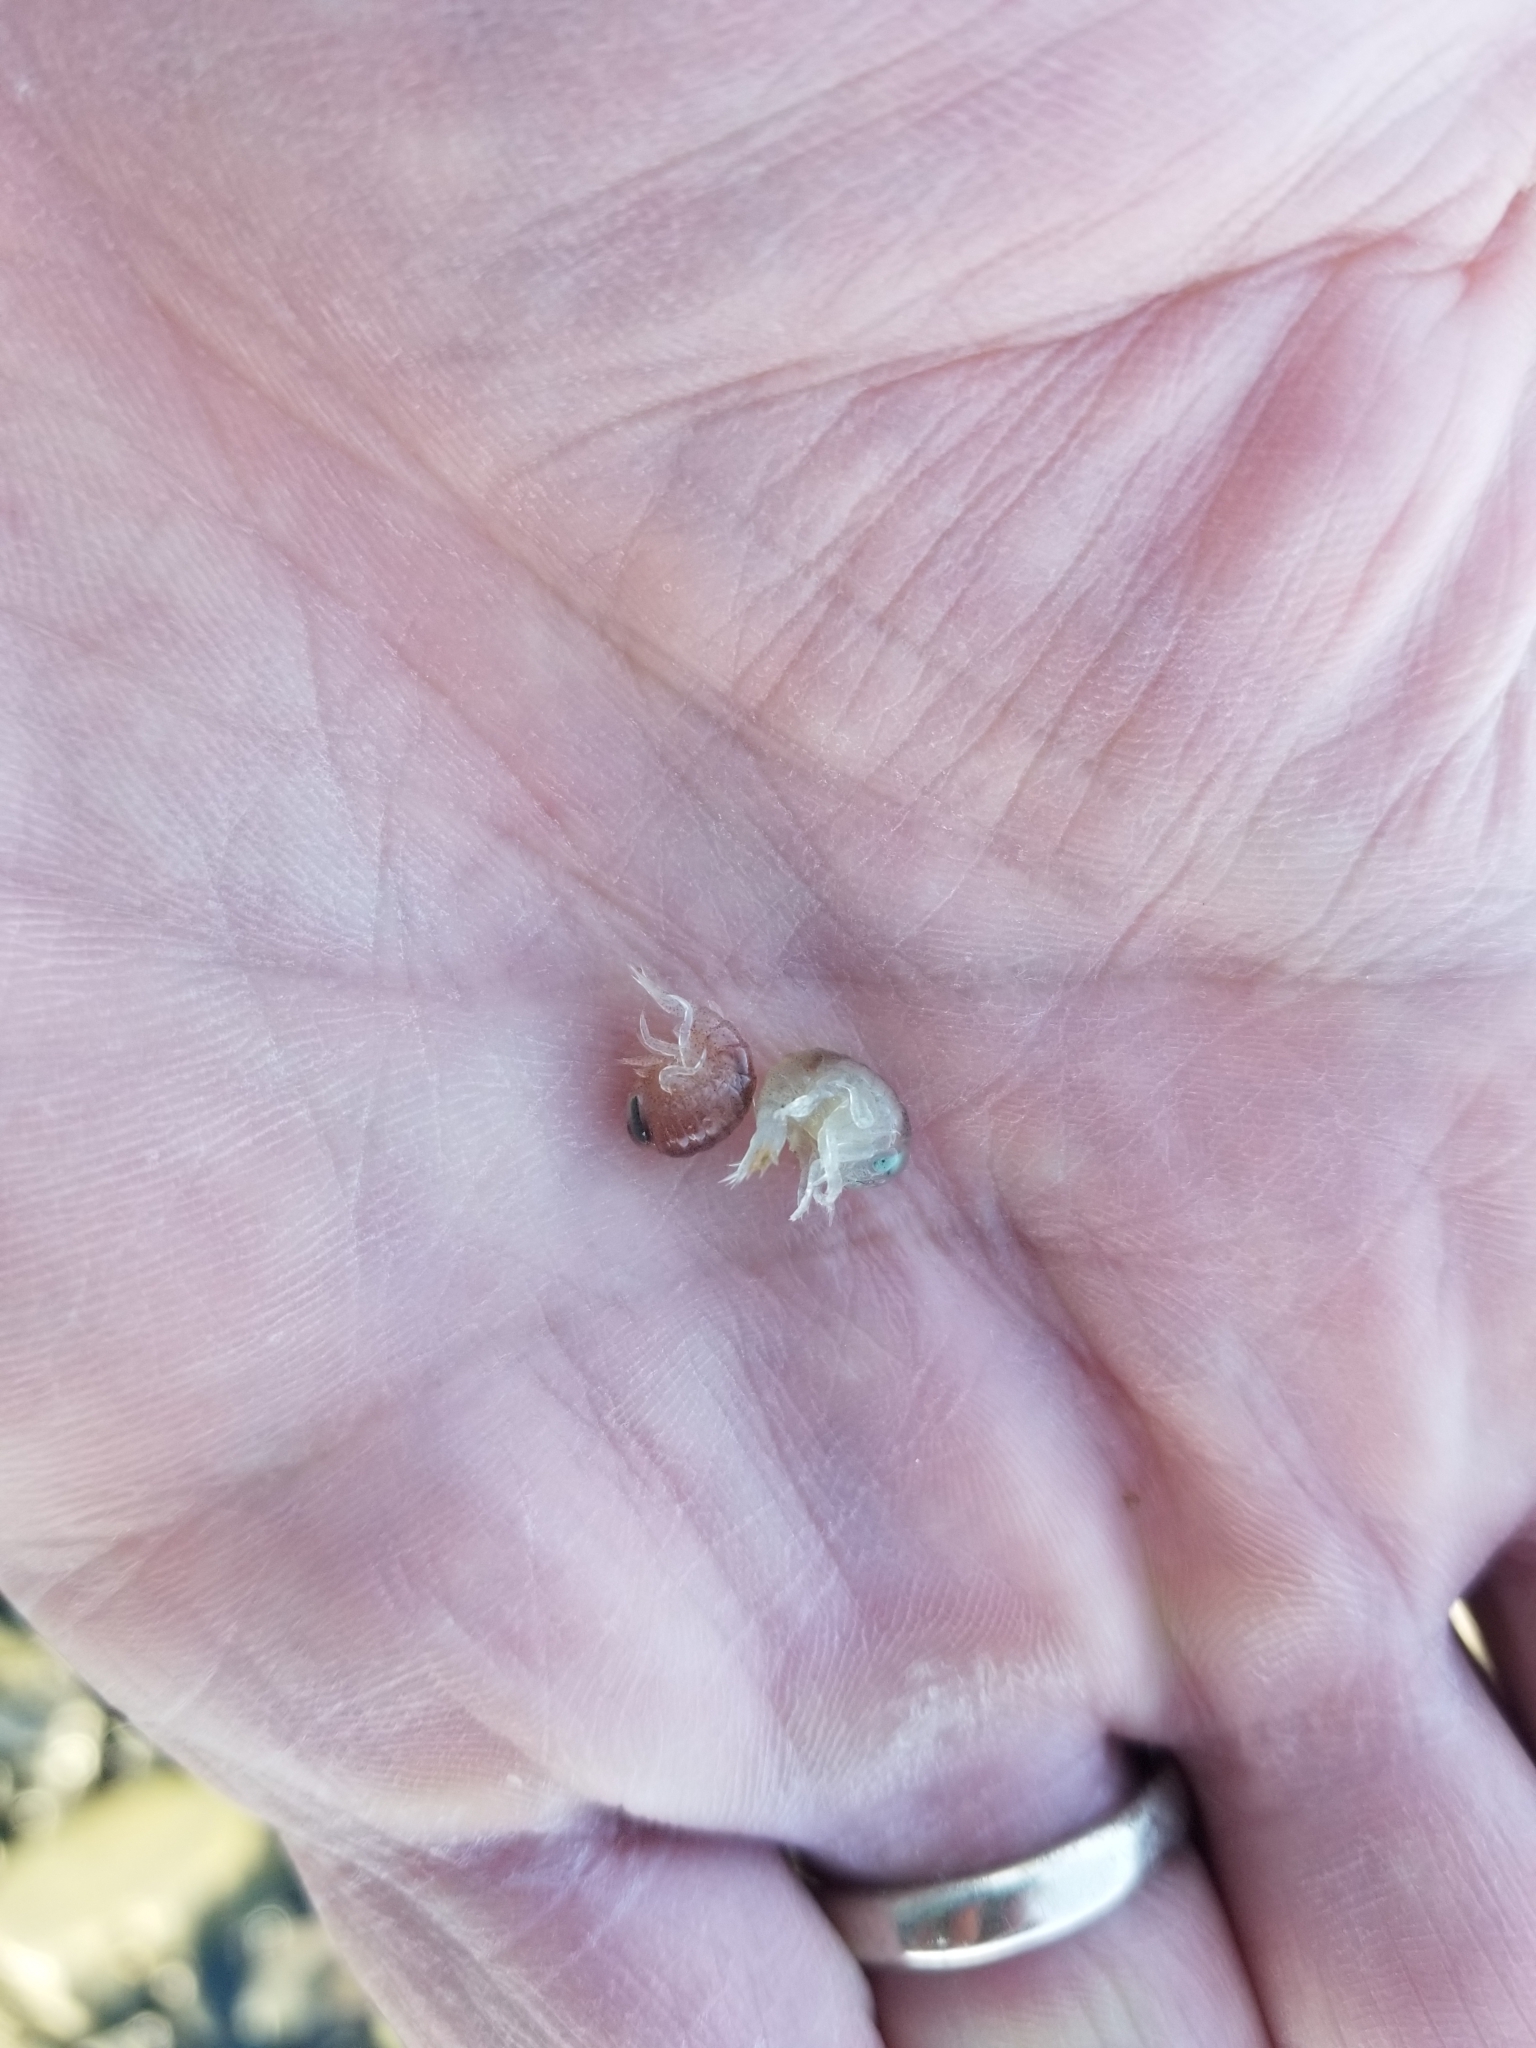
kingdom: Animalia
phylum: Arthropoda
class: Malacostraca
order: Amphipoda
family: Hyperiidae
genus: Hyperia
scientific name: Hyperia galba
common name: Big-eye amphipod
